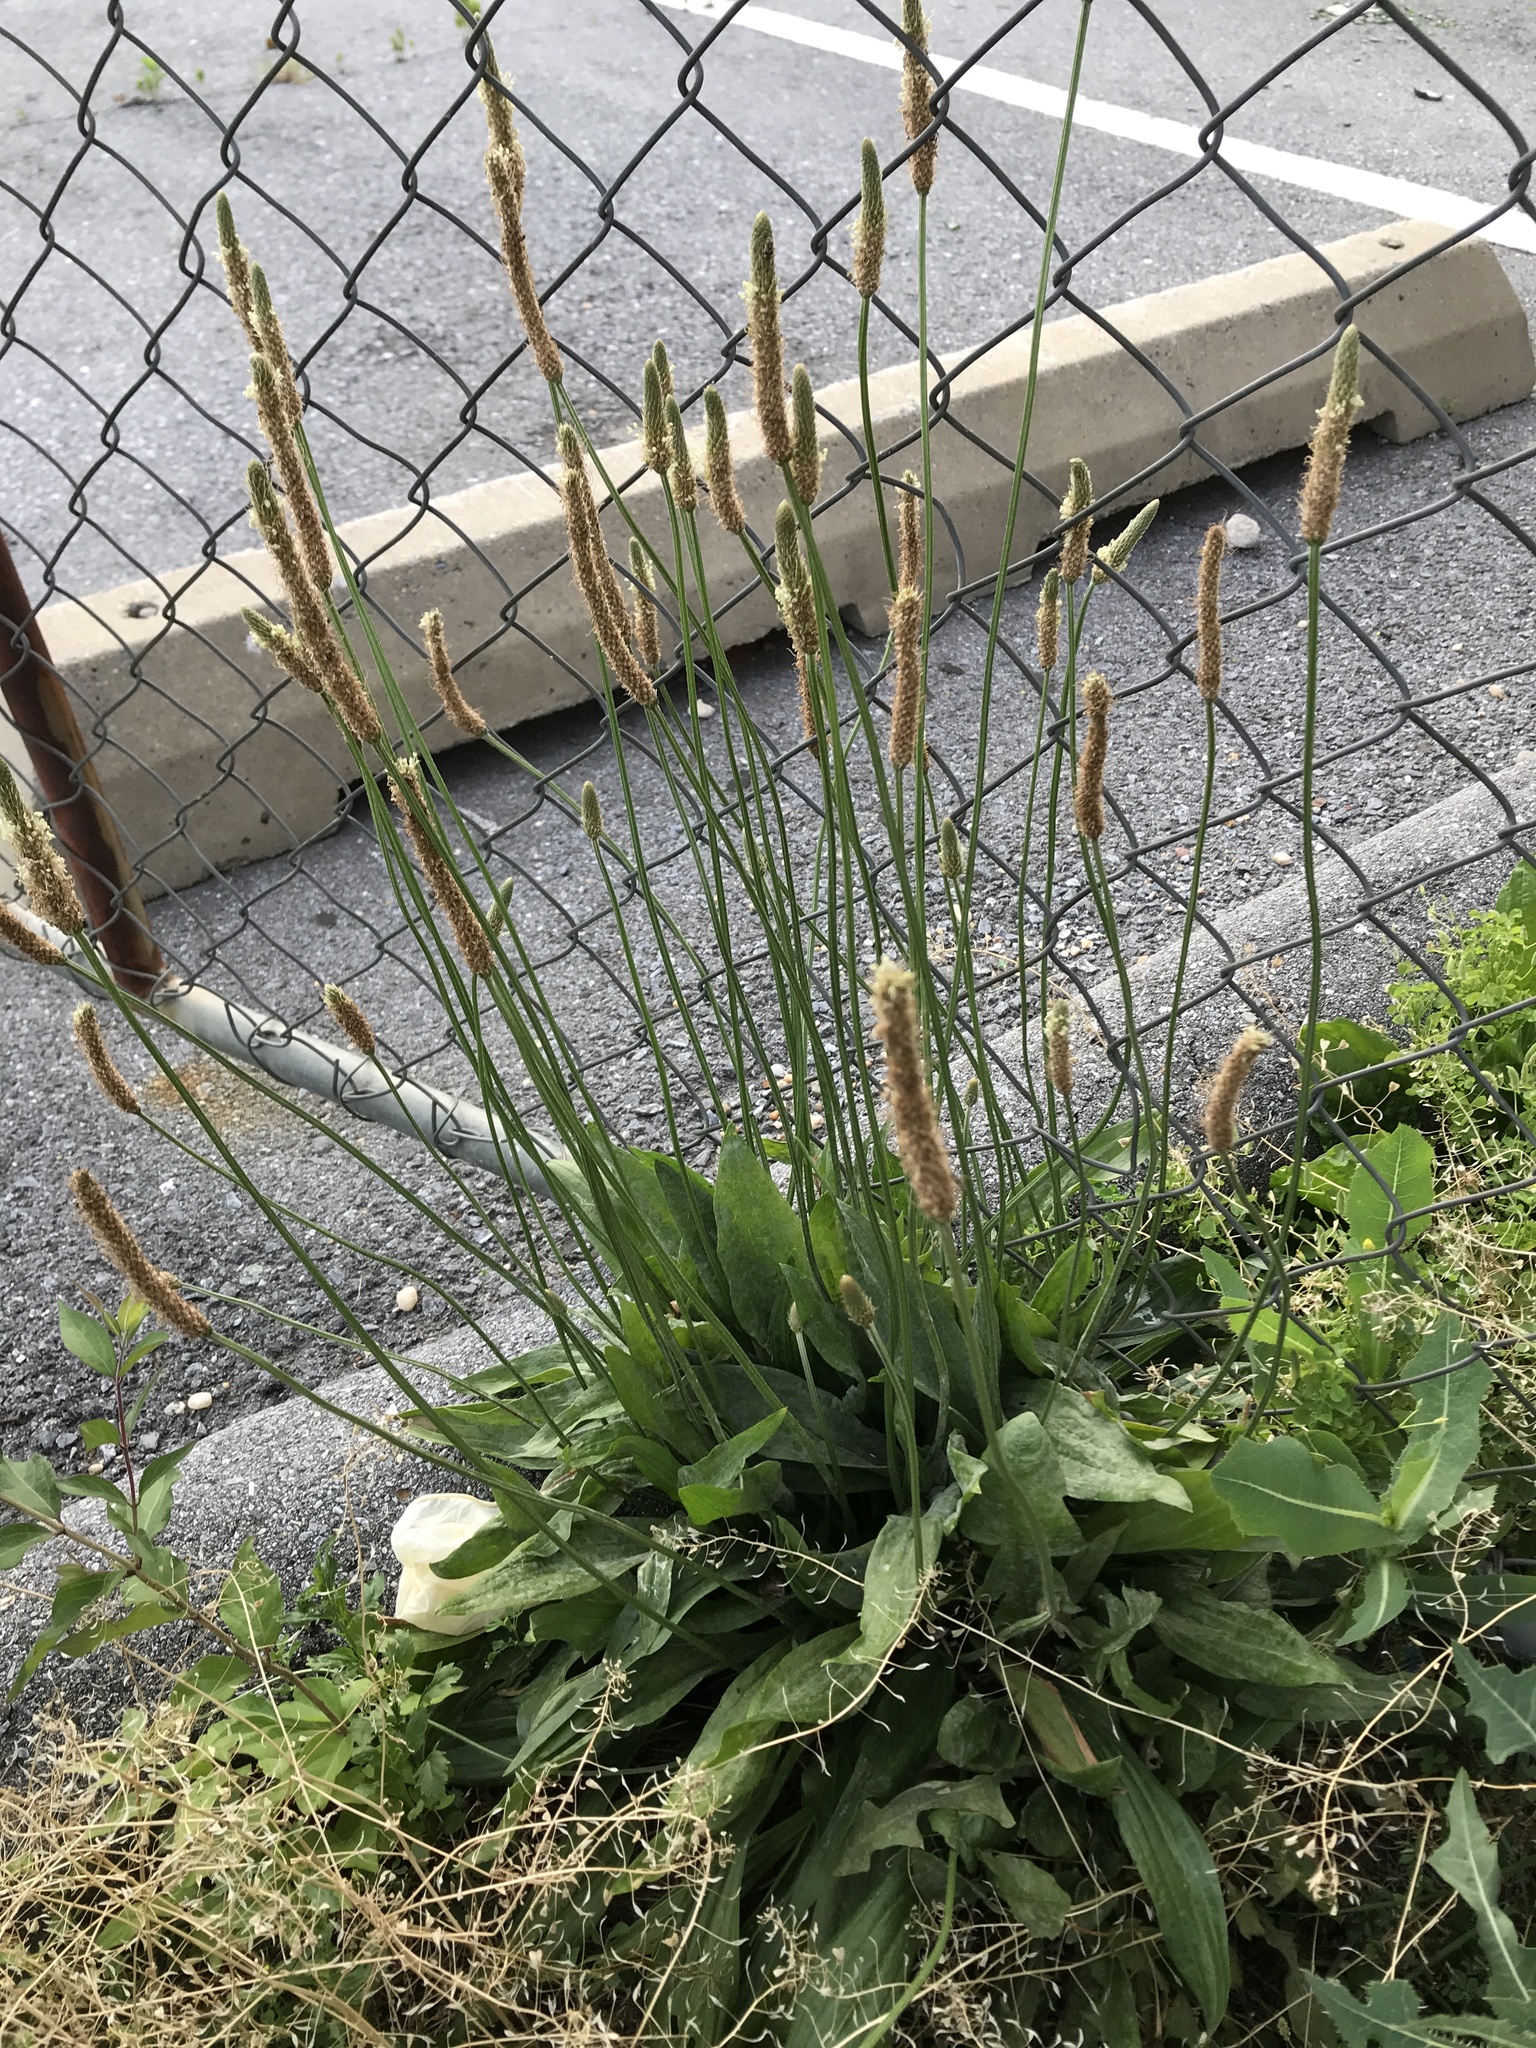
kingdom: Plantae
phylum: Tracheophyta
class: Magnoliopsida
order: Lamiales
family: Plantaginaceae
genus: Plantago
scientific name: Plantago lanceolata
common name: Ribwort plantain
